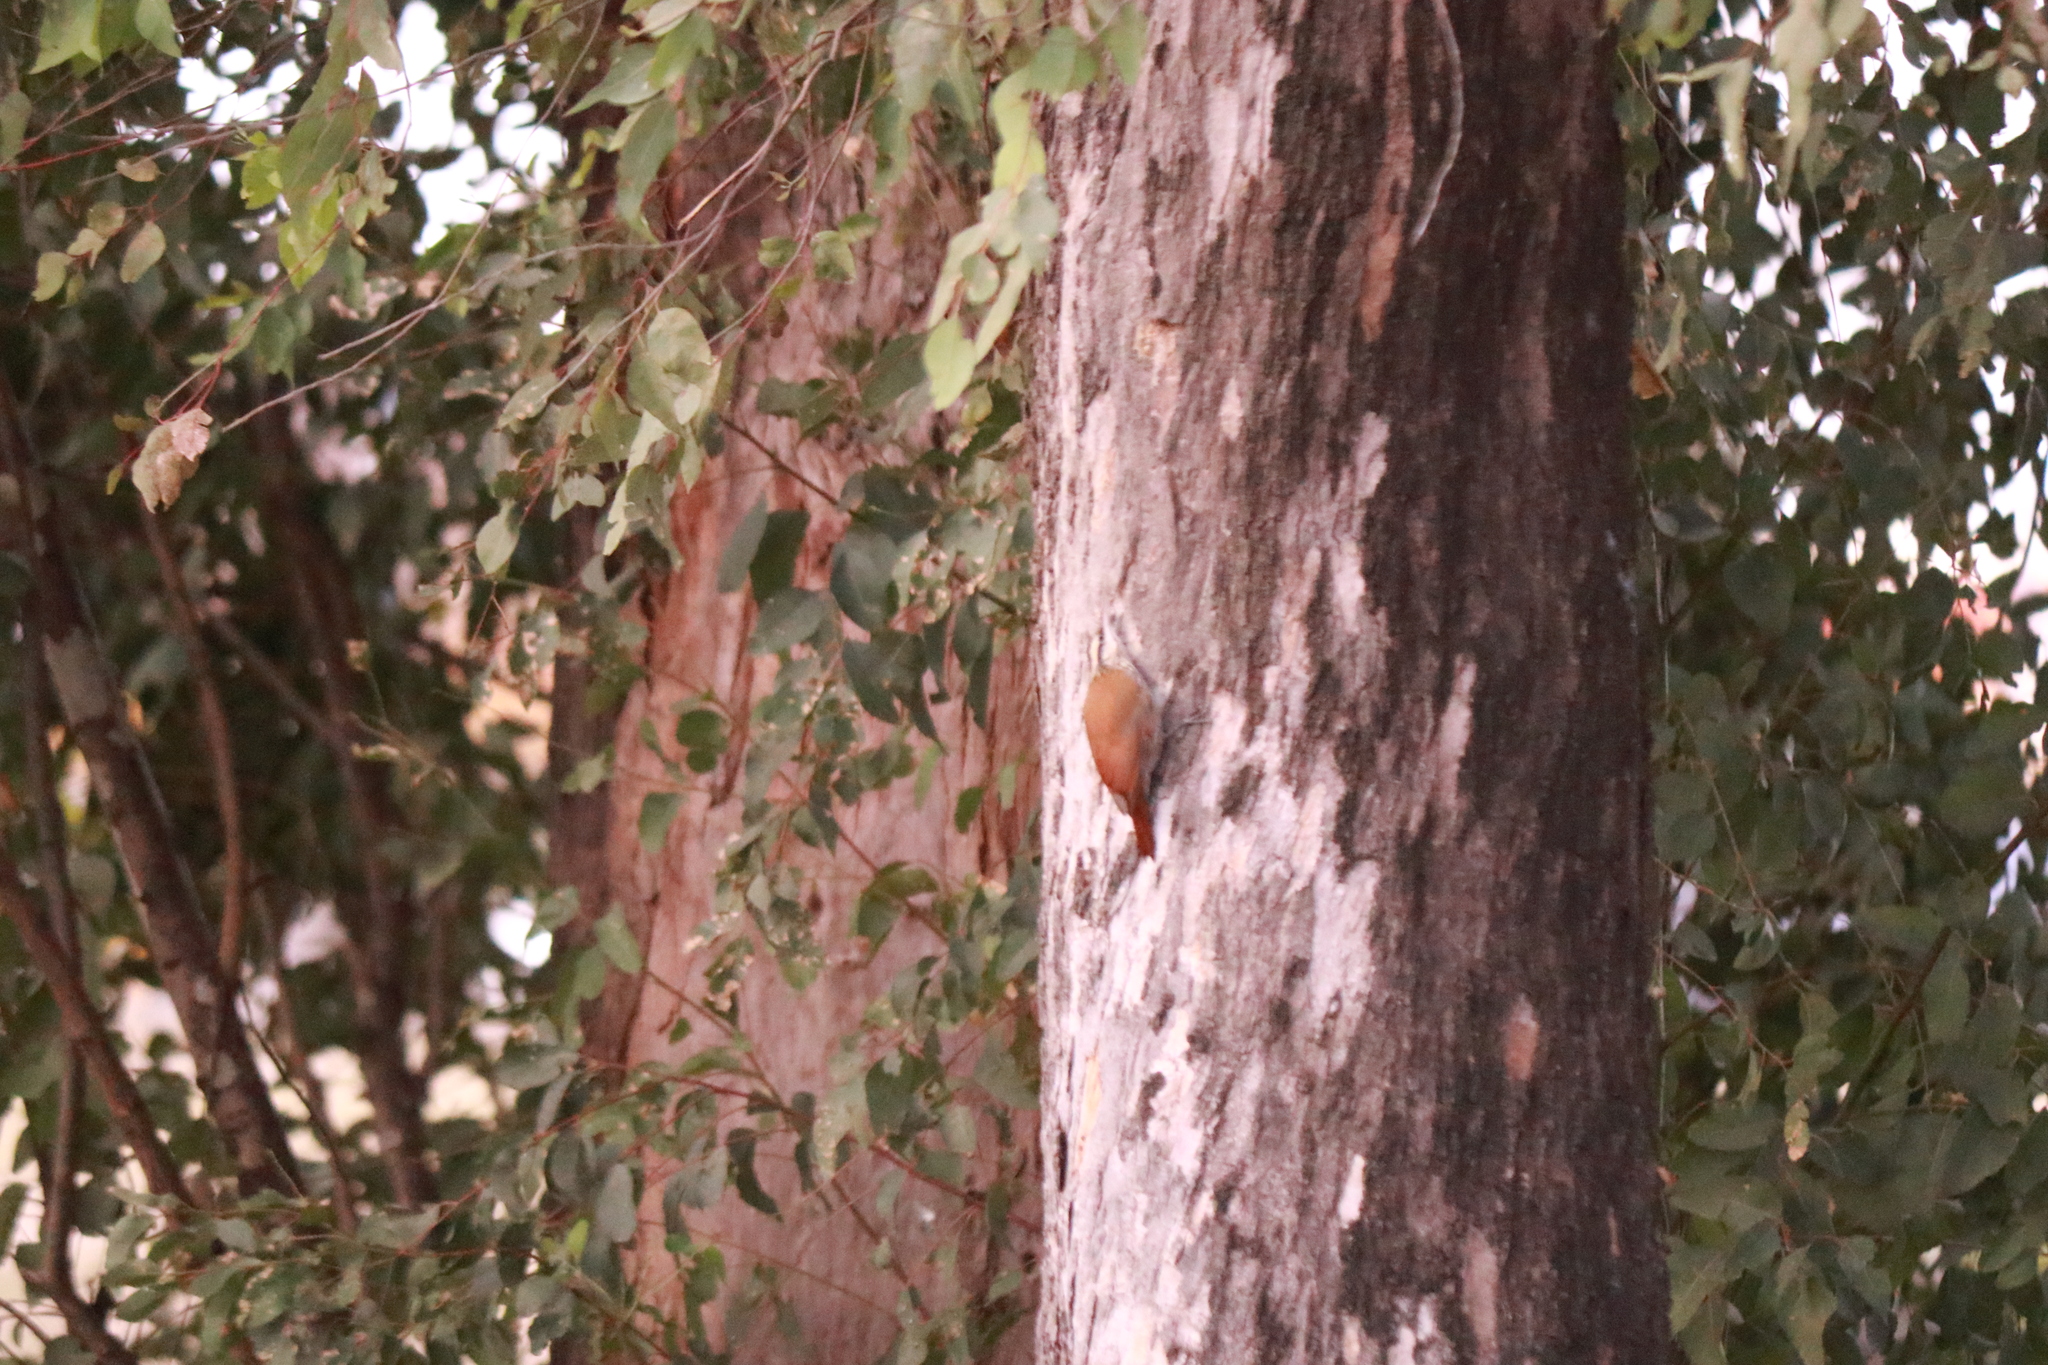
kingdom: Animalia
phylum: Chordata
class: Aves
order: Passeriformes
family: Furnariidae
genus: Lepidocolaptes
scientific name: Lepidocolaptes angustirostris
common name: Narrow-billed woodcreeper
